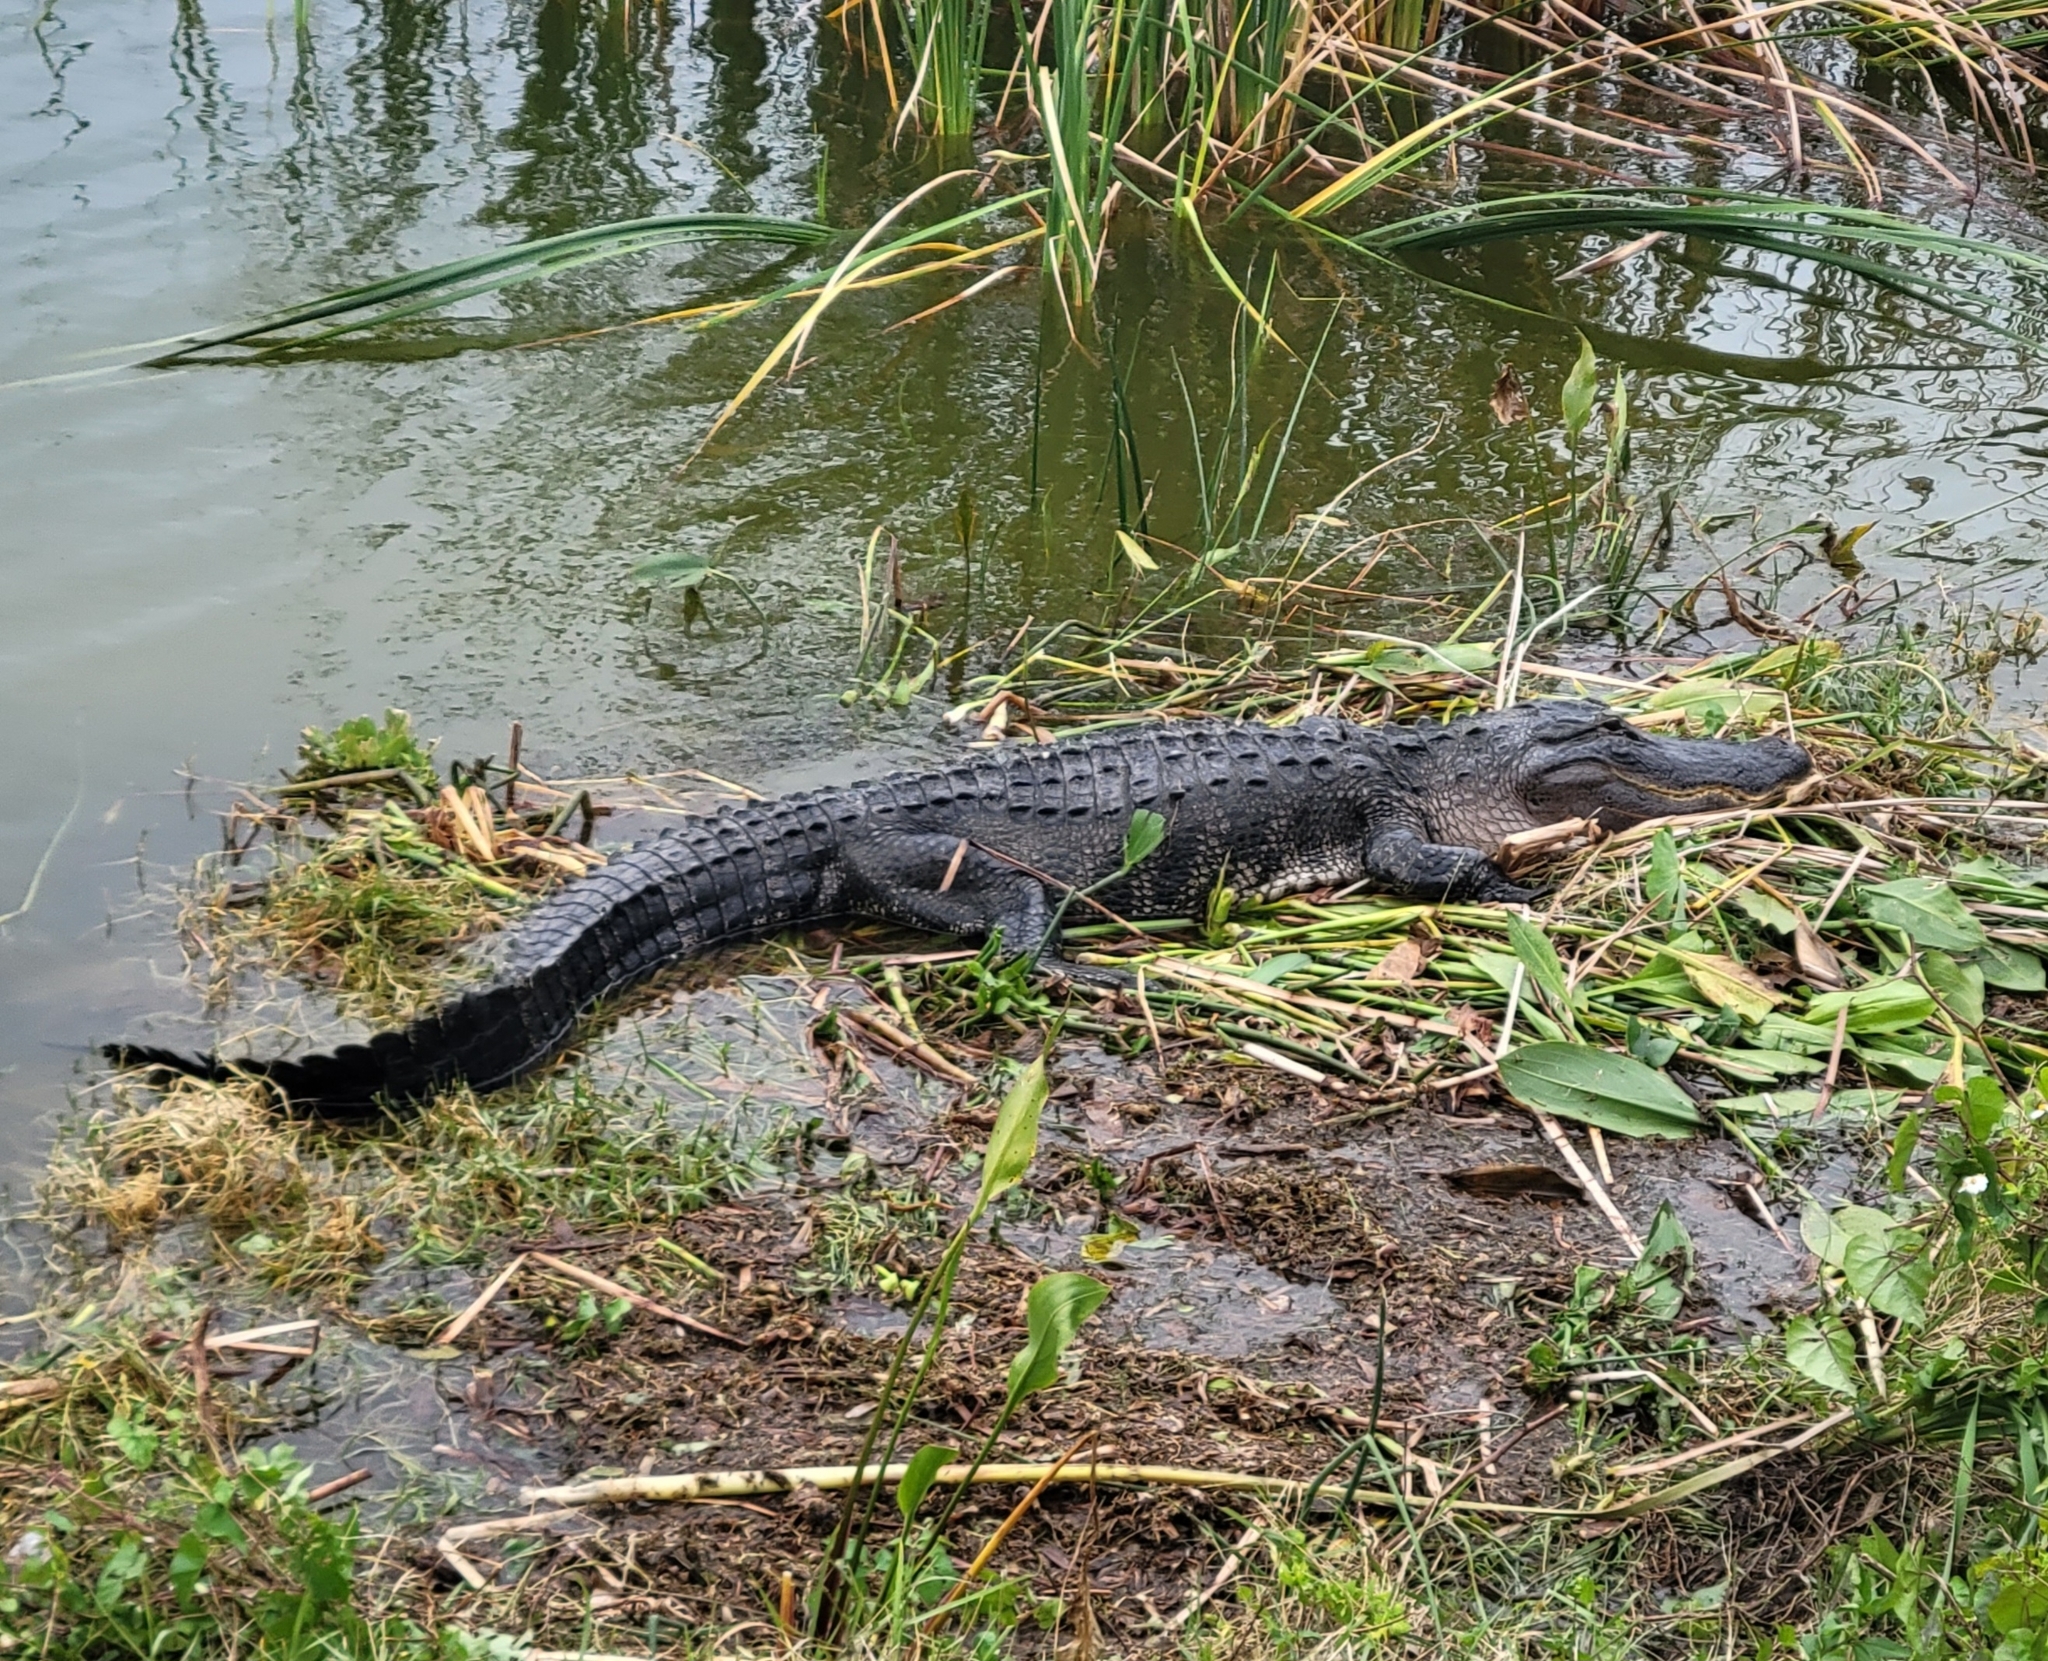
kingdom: Animalia
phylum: Chordata
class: Crocodylia
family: Alligatoridae
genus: Alligator
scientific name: Alligator mississippiensis
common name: American alligator
